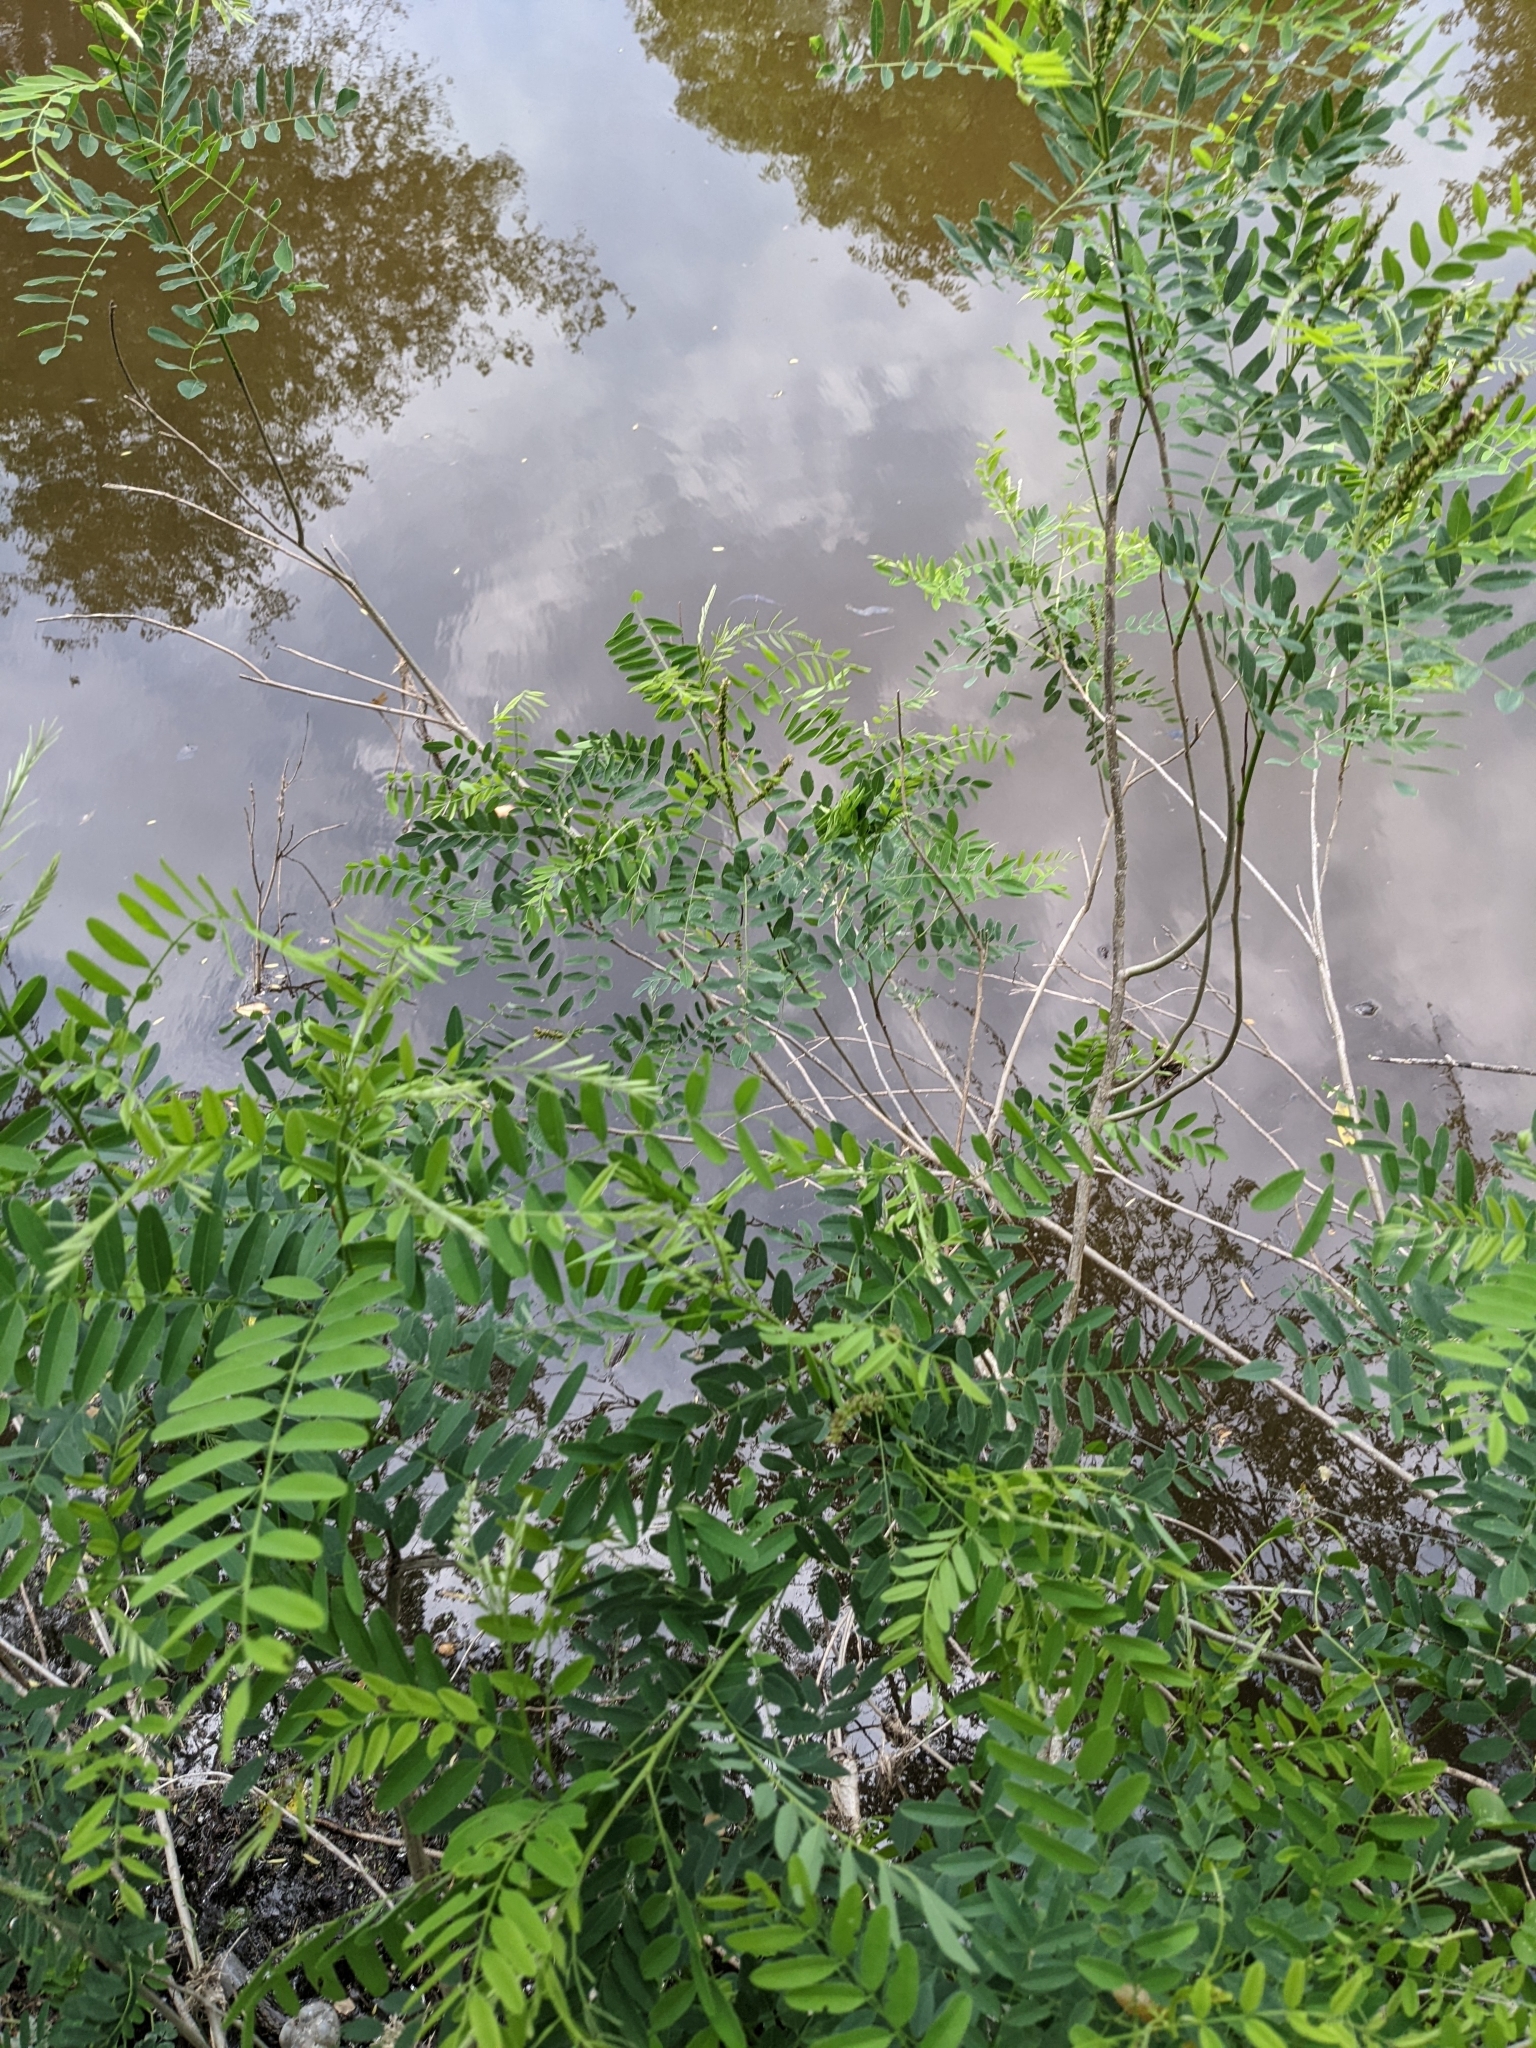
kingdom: Plantae
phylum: Tracheophyta
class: Magnoliopsida
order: Fabales
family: Fabaceae
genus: Amorpha
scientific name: Amorpha fruticosa
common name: False indigo
